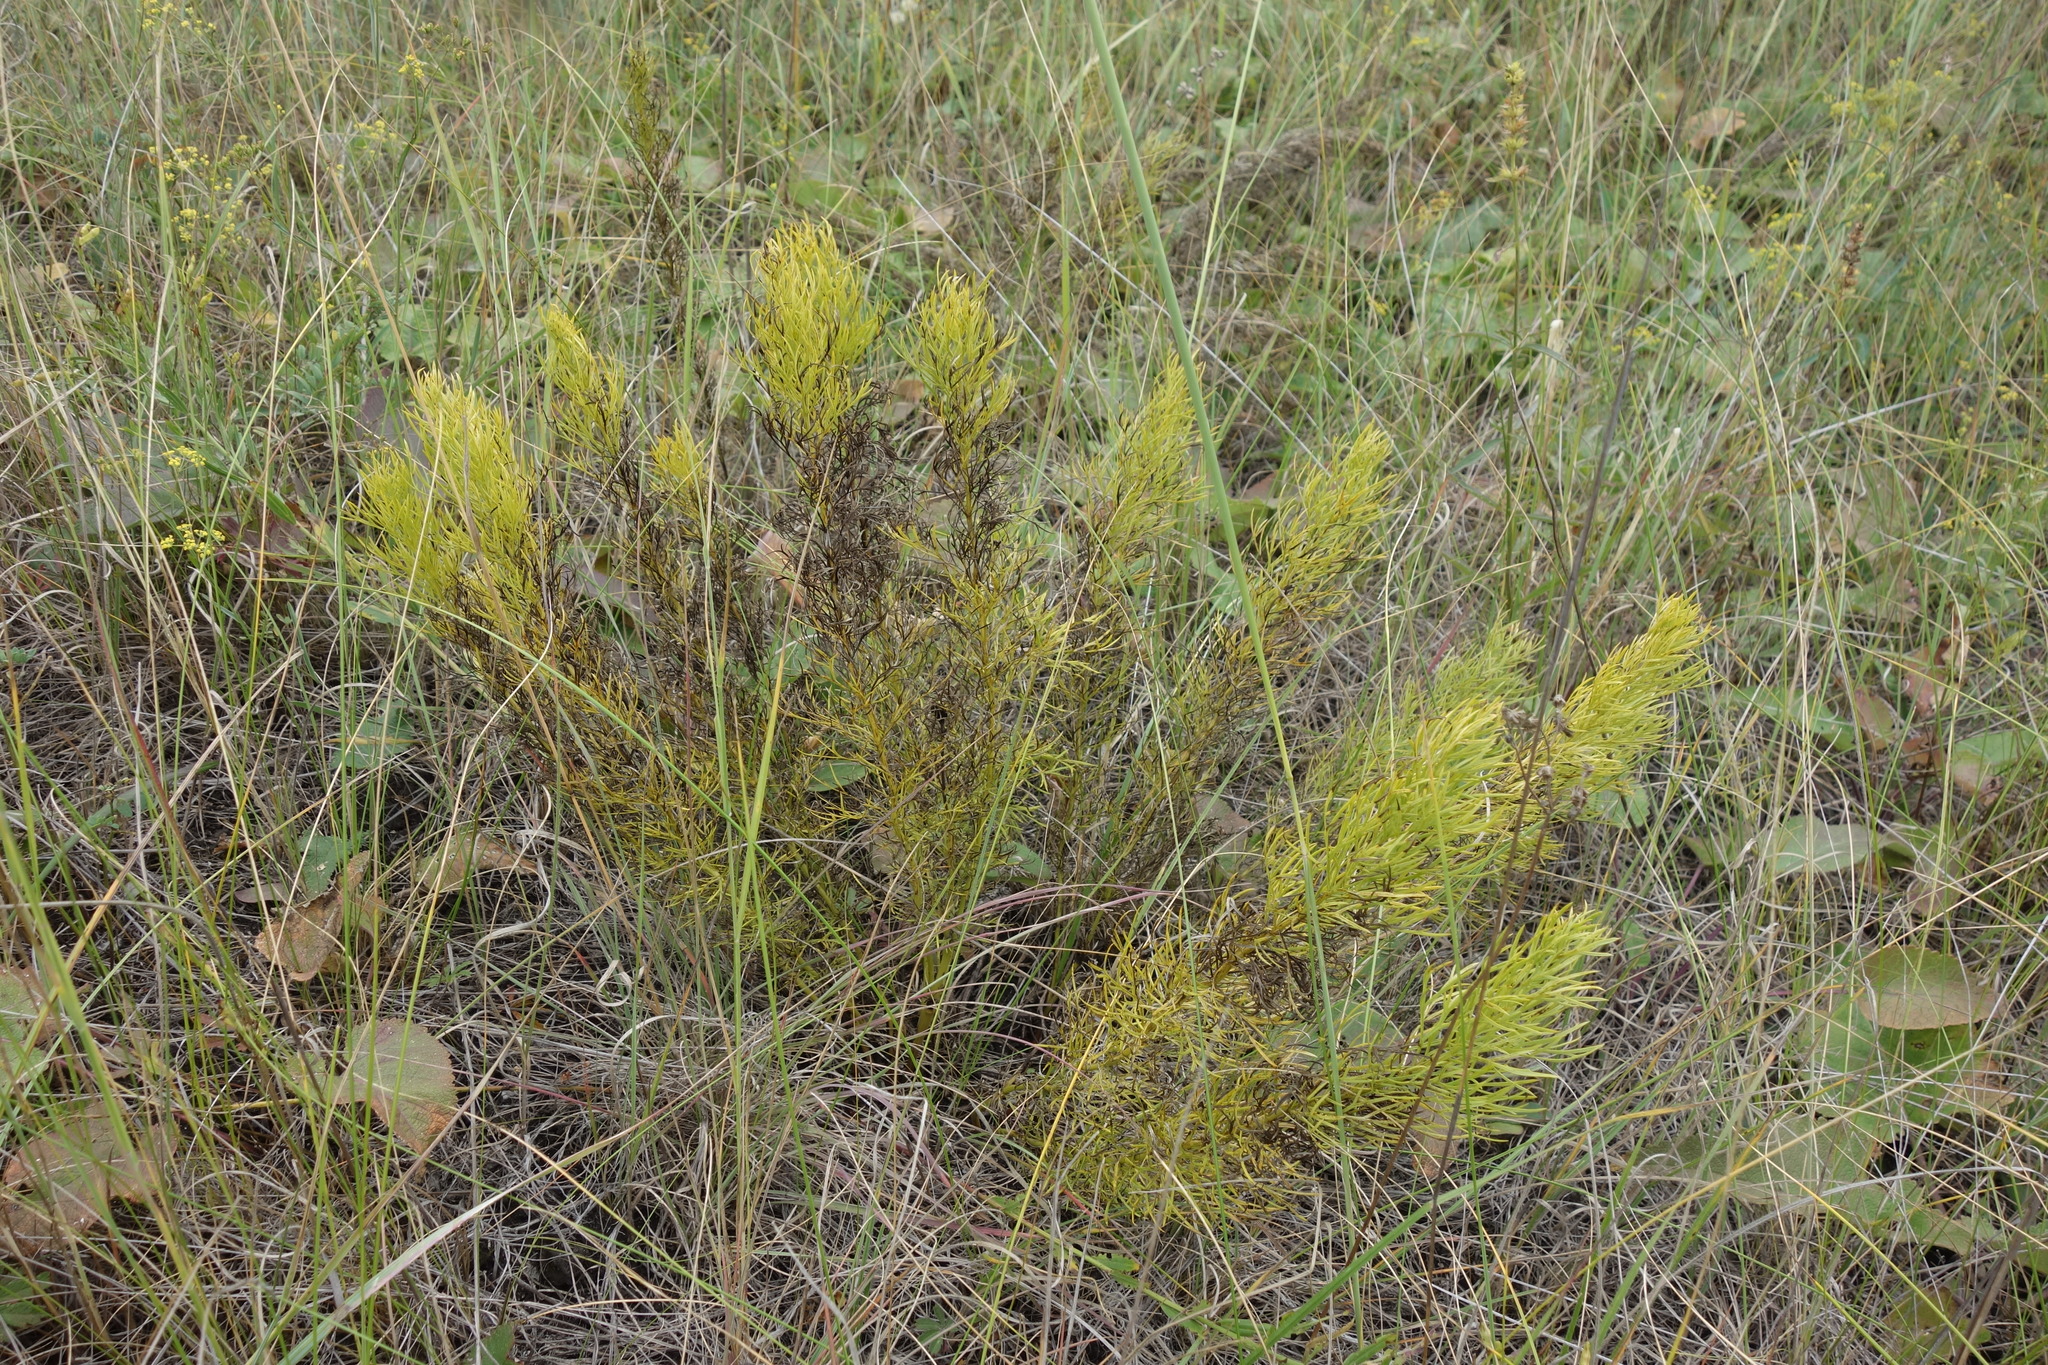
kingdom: Plantae
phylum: Tracheophyta
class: Magnoliopsida
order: Ranunculales
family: Ranunculaceae
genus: Adonis
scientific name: Adonis vernalis
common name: Yellow pheasants-eye
